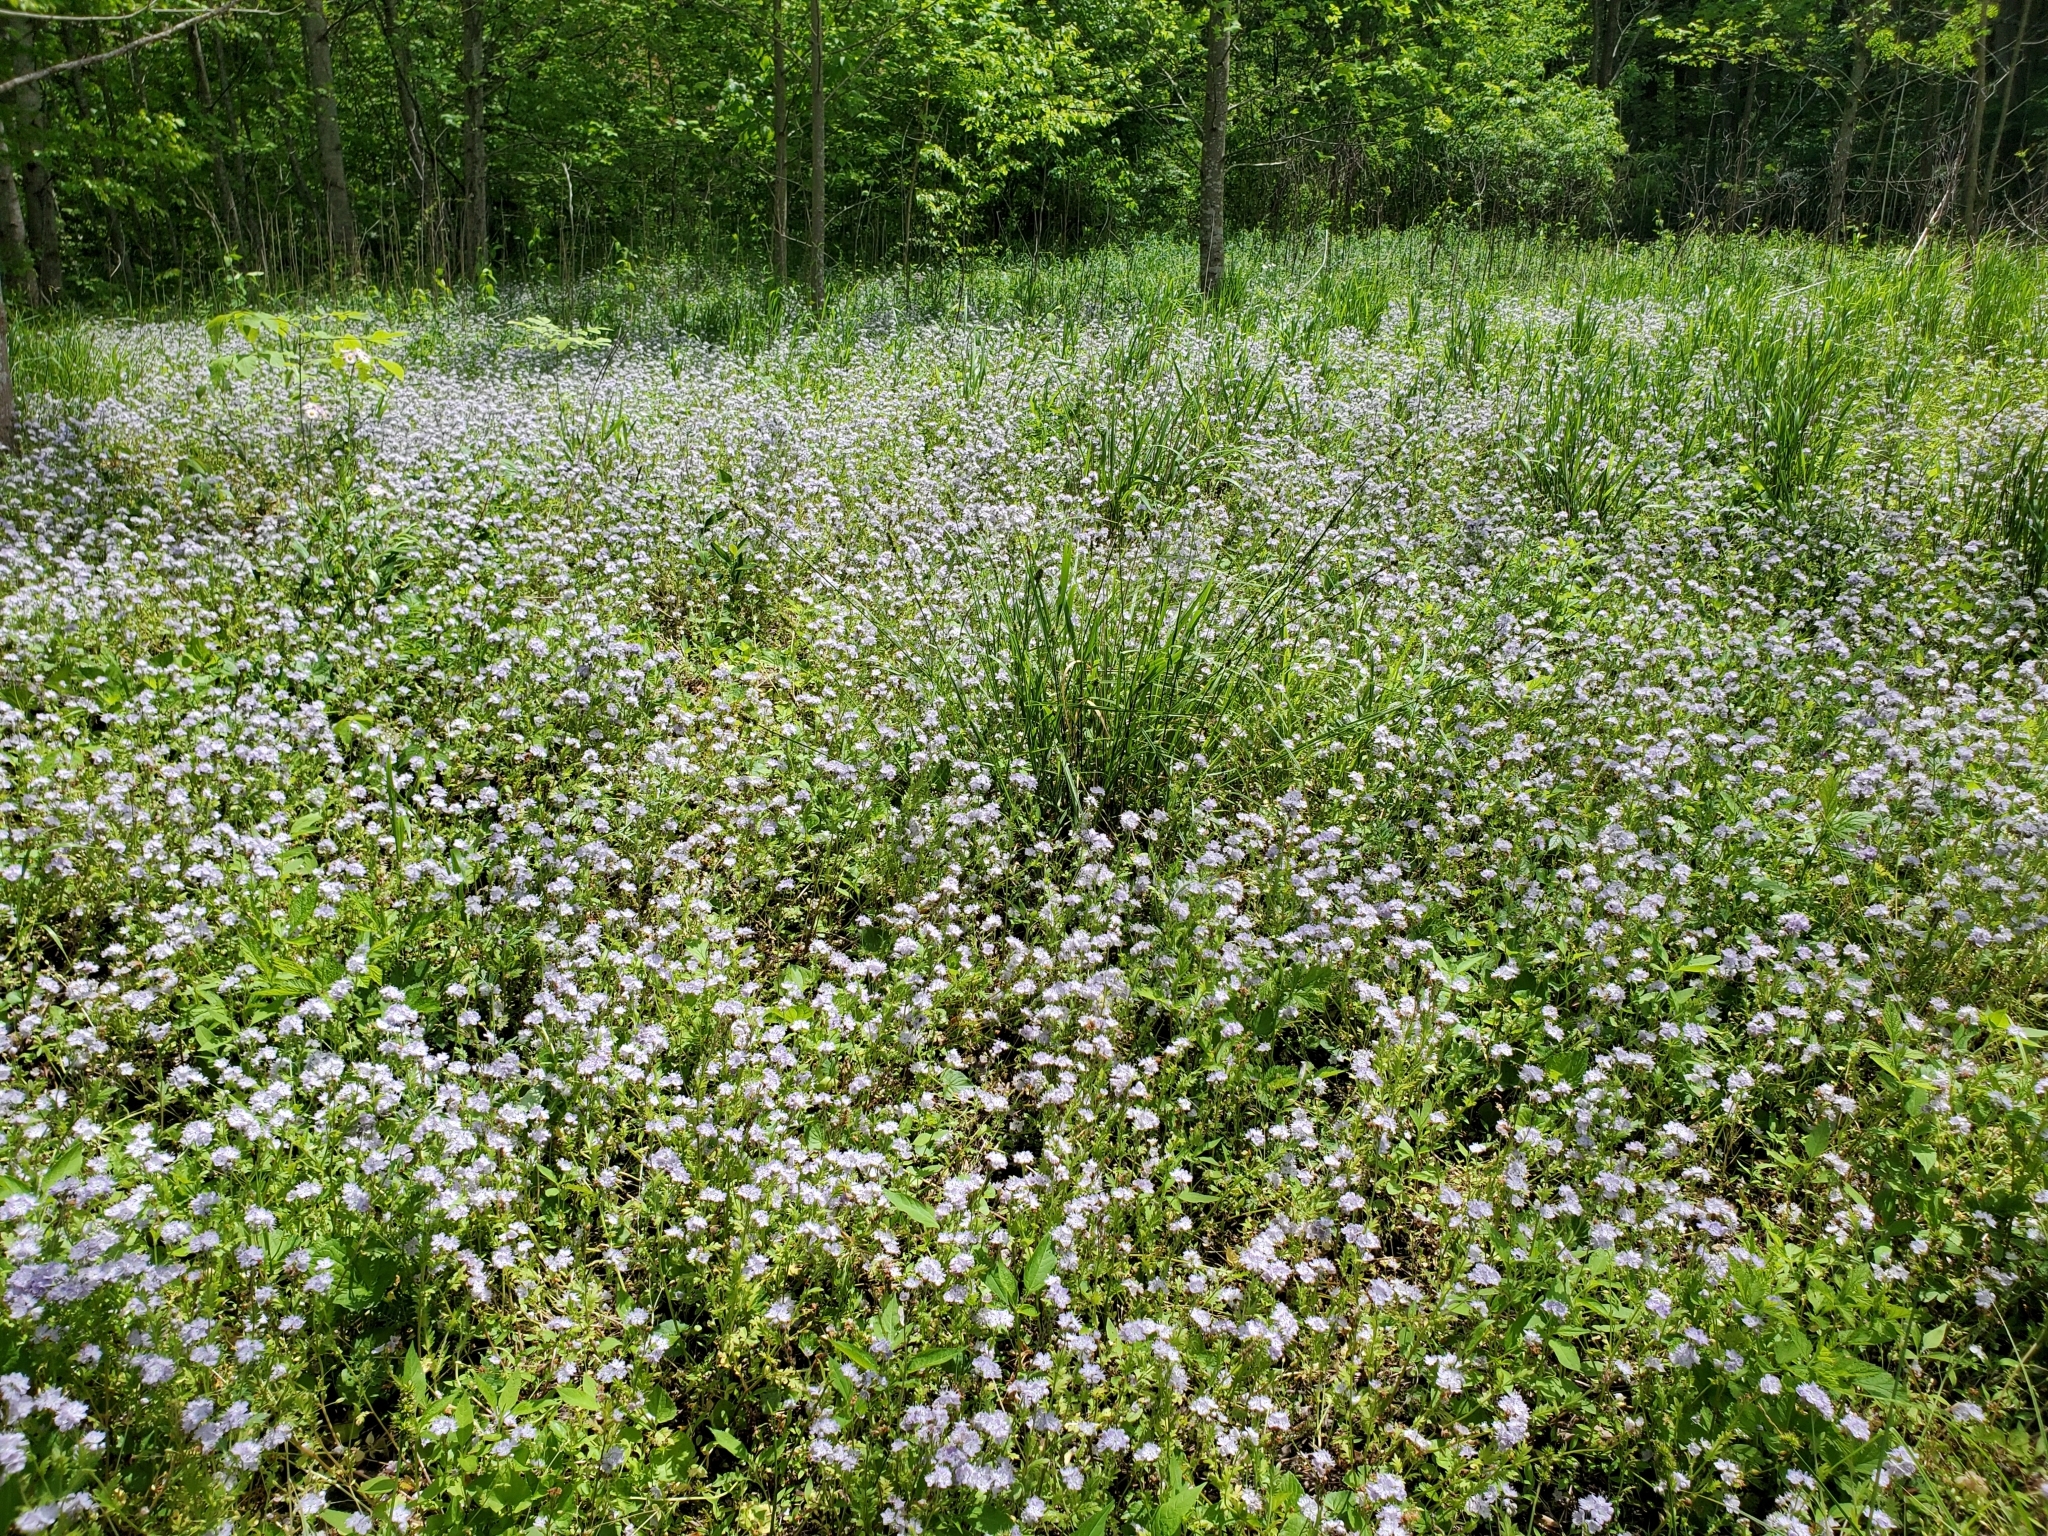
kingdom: Plantae
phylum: Tracheophyta
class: Magnoliopsida
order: Boraginales
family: Hydrophyllaceae
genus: Phacelia
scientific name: Phacelia purshii
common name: Miami-mist
